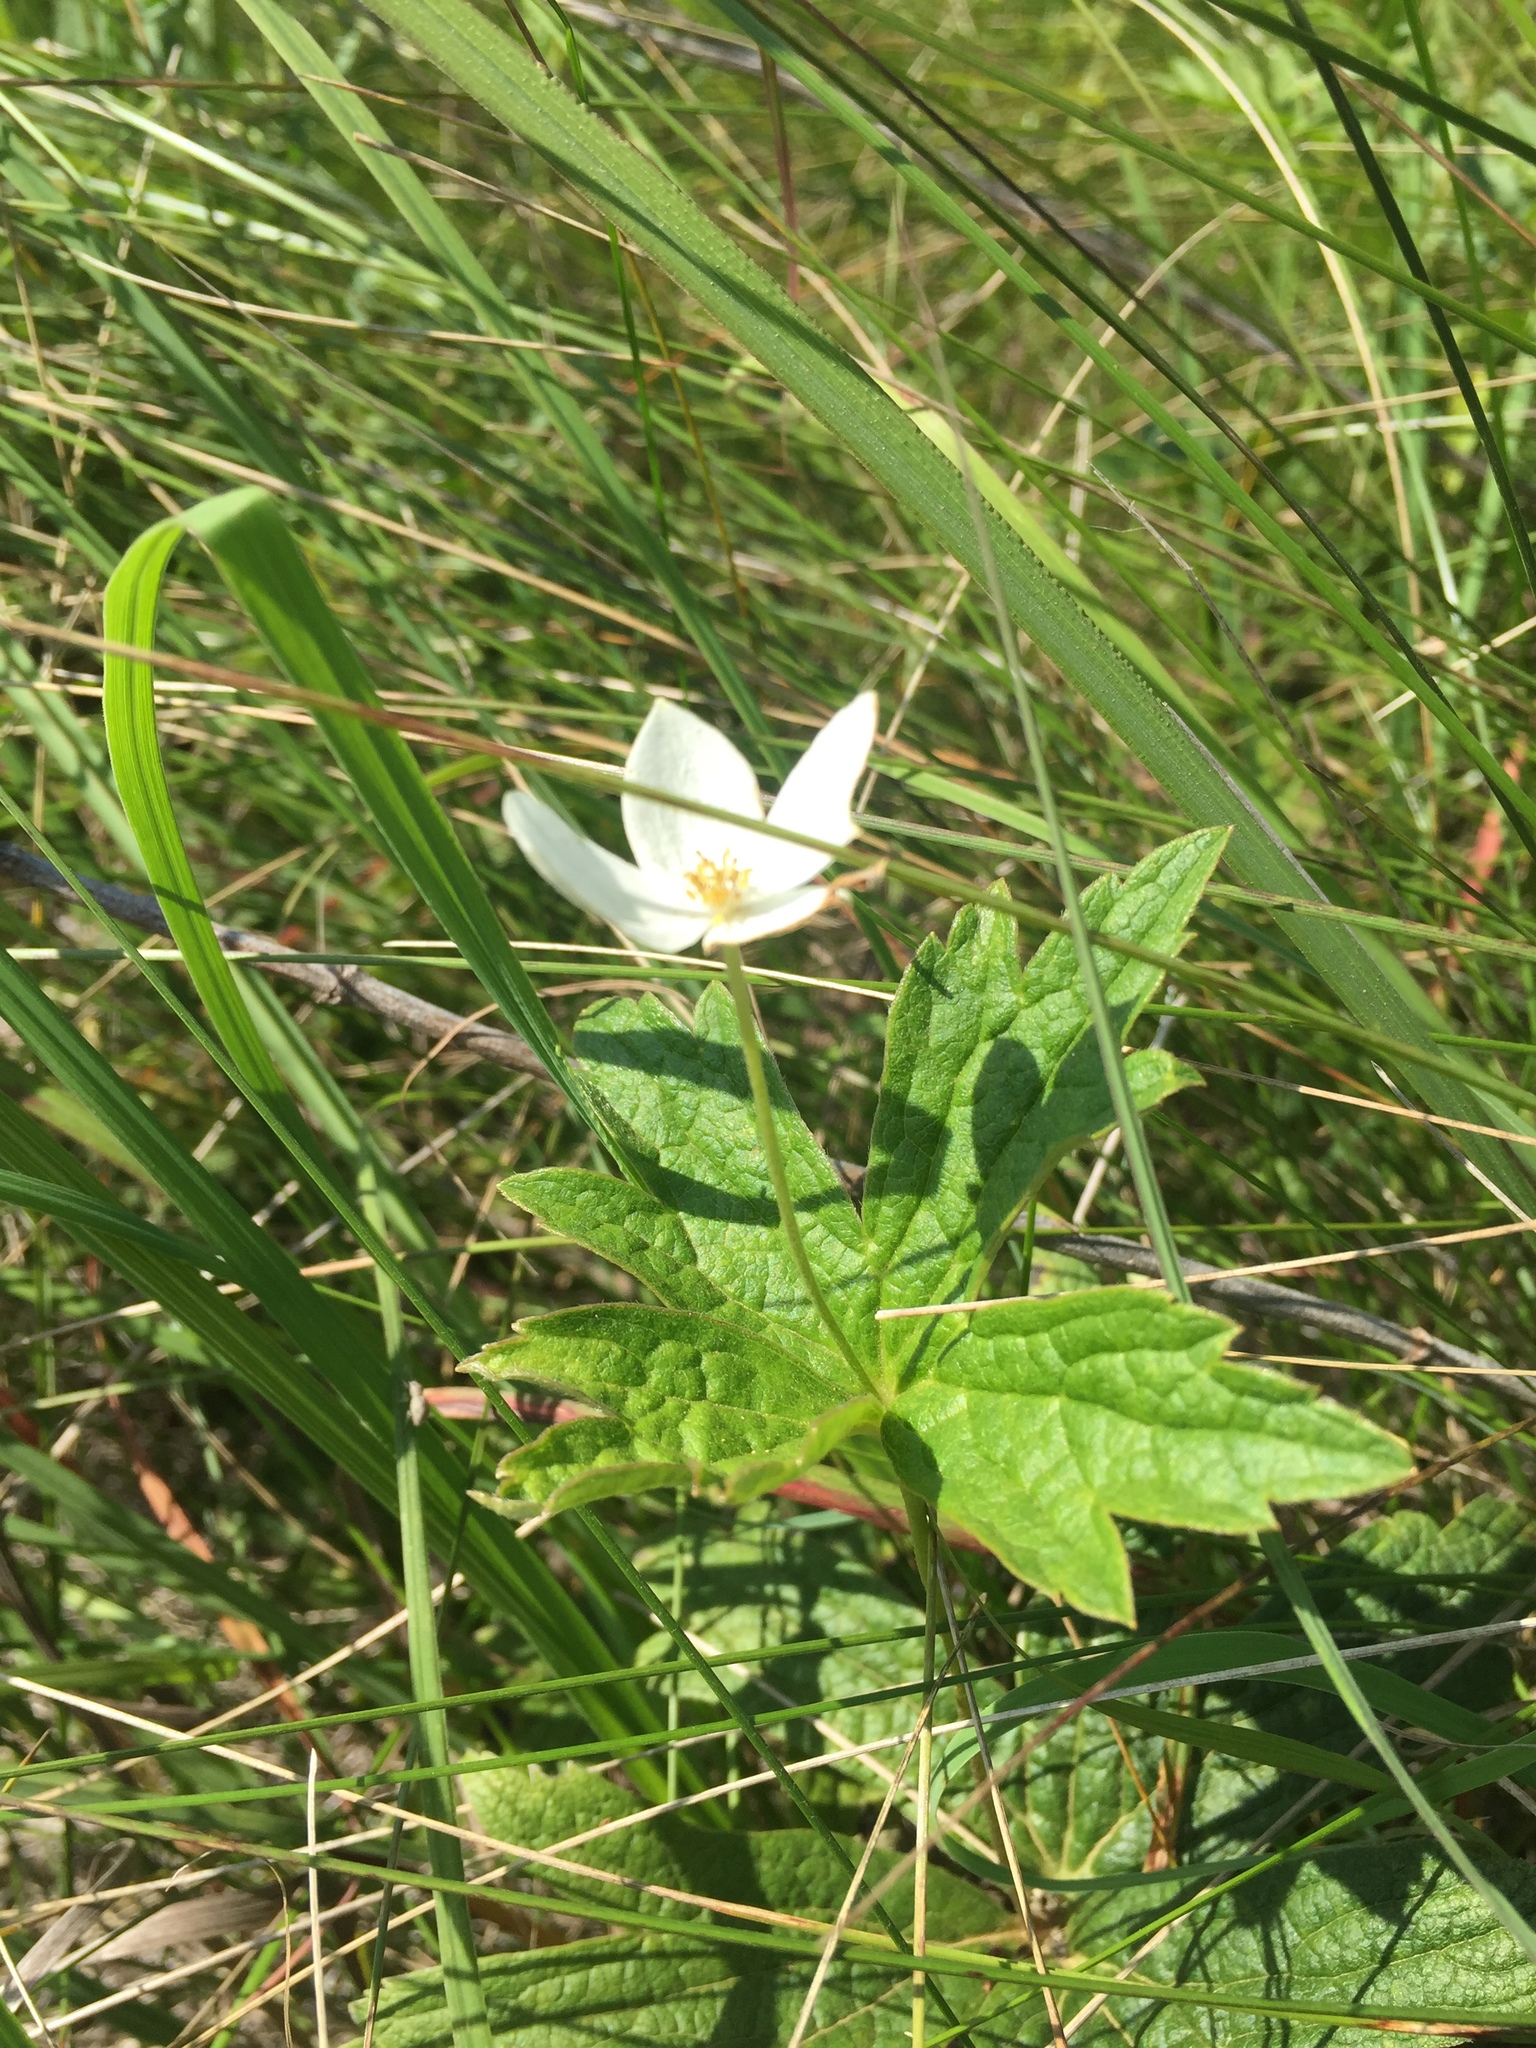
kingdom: Plantae
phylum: Tracheophyta
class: Magnoliopsida
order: Ranunculales
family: Ranunculaceae
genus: Anemonastrum
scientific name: Anemonastrum canadense
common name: Canada anemone
